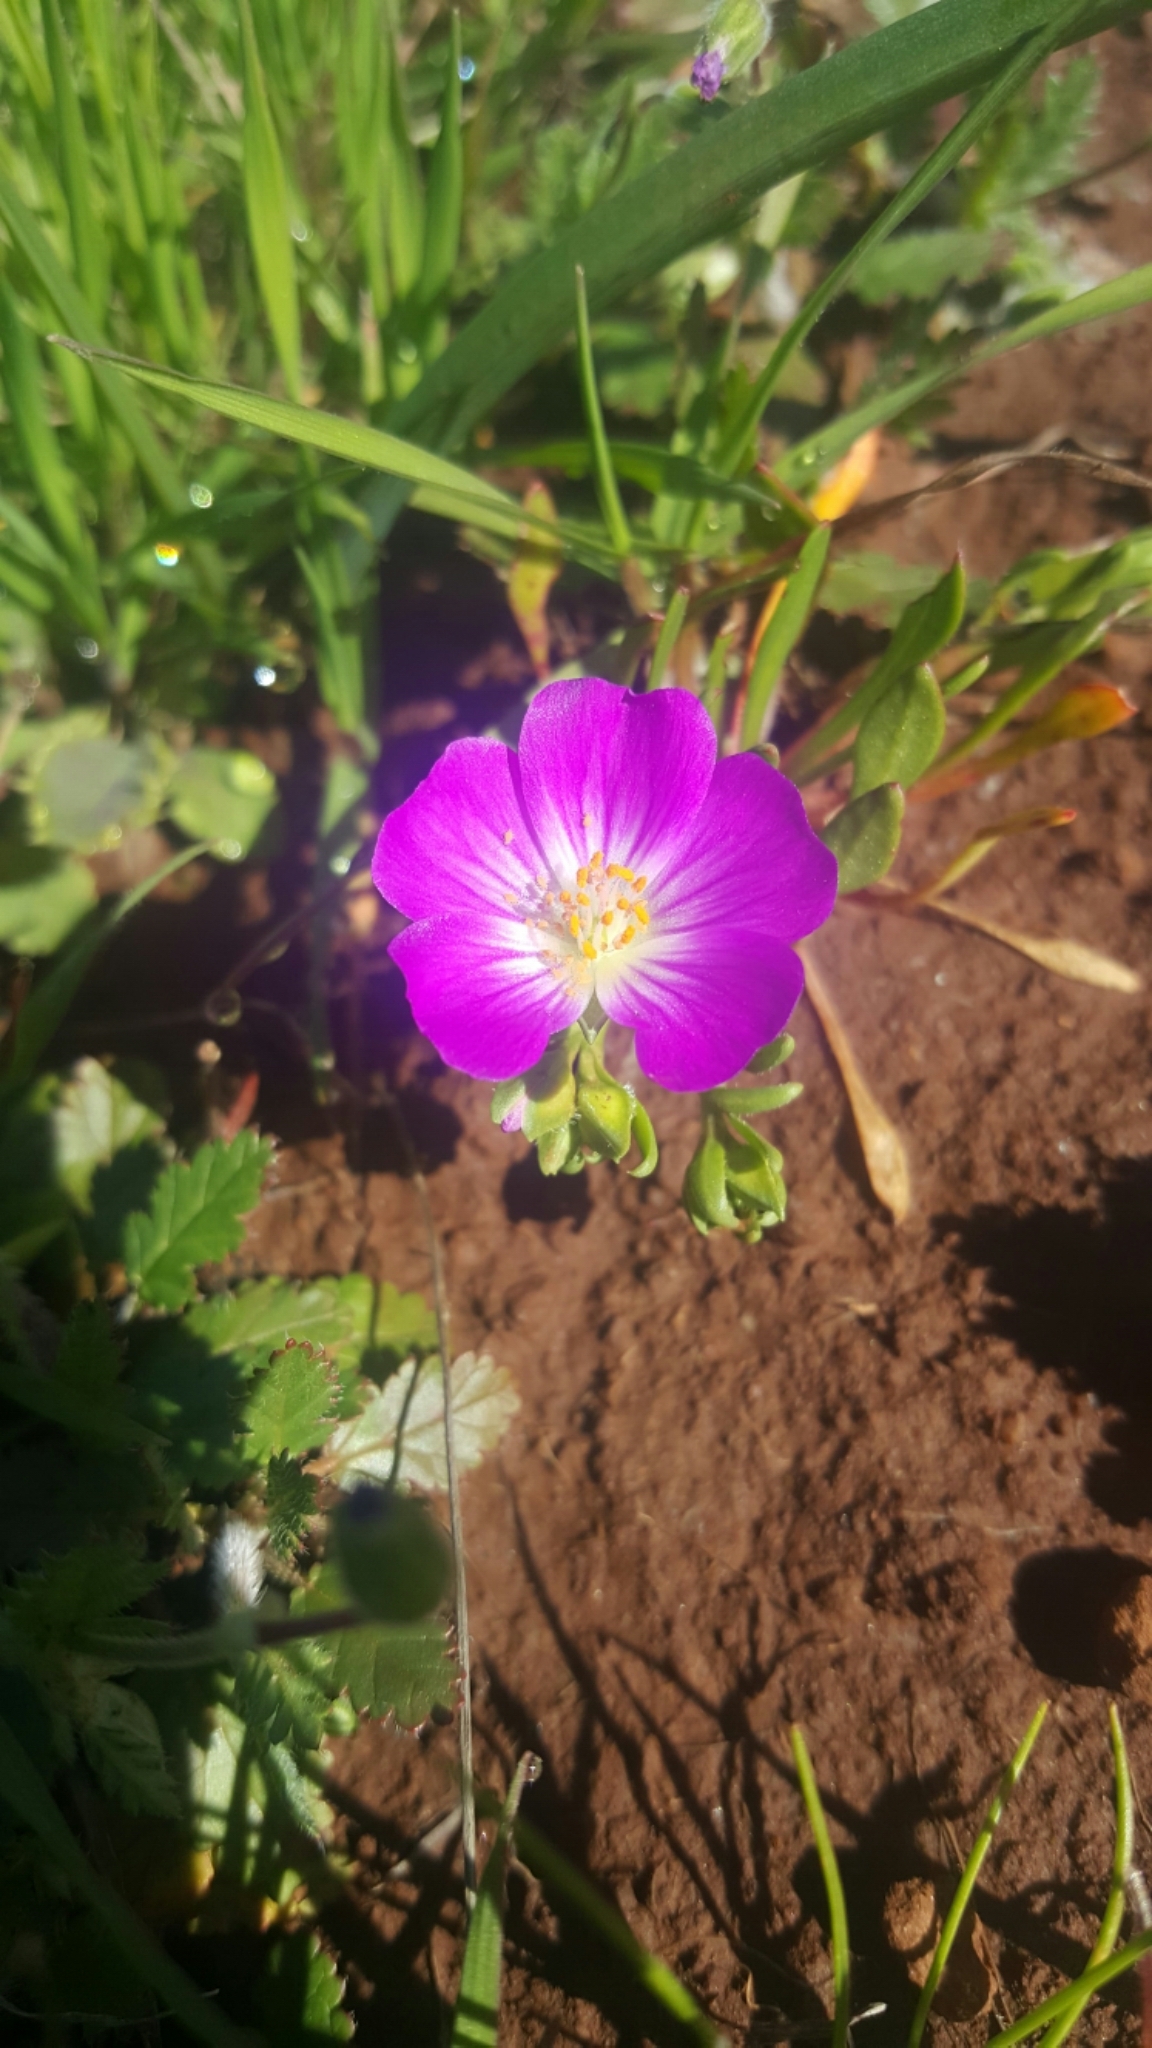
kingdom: Plantae
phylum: Tracheophyta
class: Magnoliopsida
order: Caryophyllales
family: Montiaceae
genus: Calandrinia
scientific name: Calandrinia menziesii
